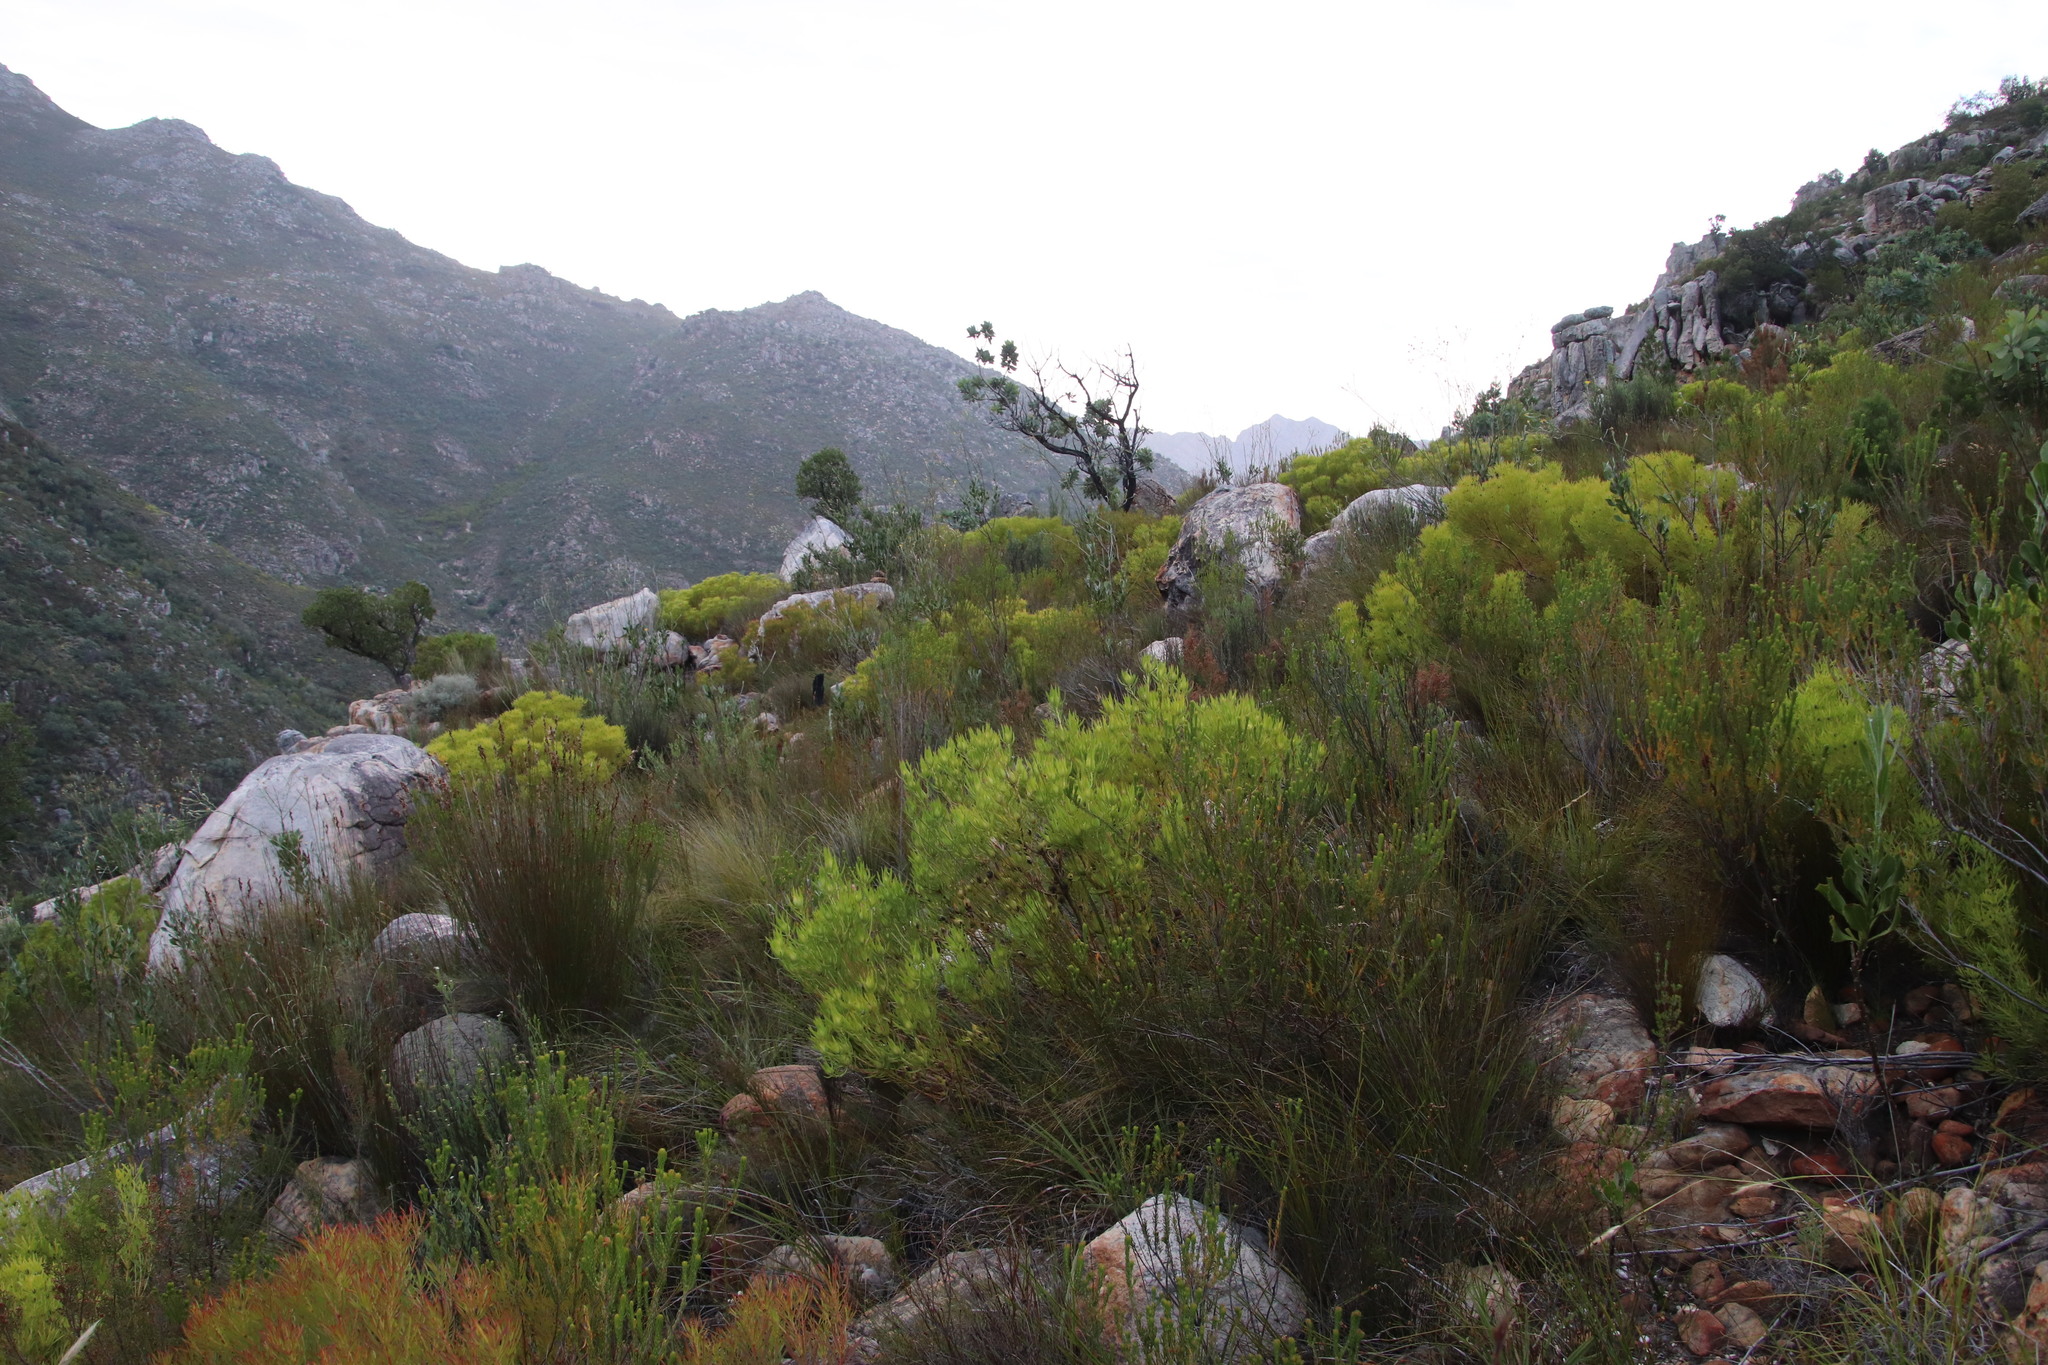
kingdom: Plantae
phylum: Tracheophyta
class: Magnoliopsida
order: Proteales
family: Proteaceae
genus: Leucadendron
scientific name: Leucadendron salignum
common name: Common sunshine conebush
